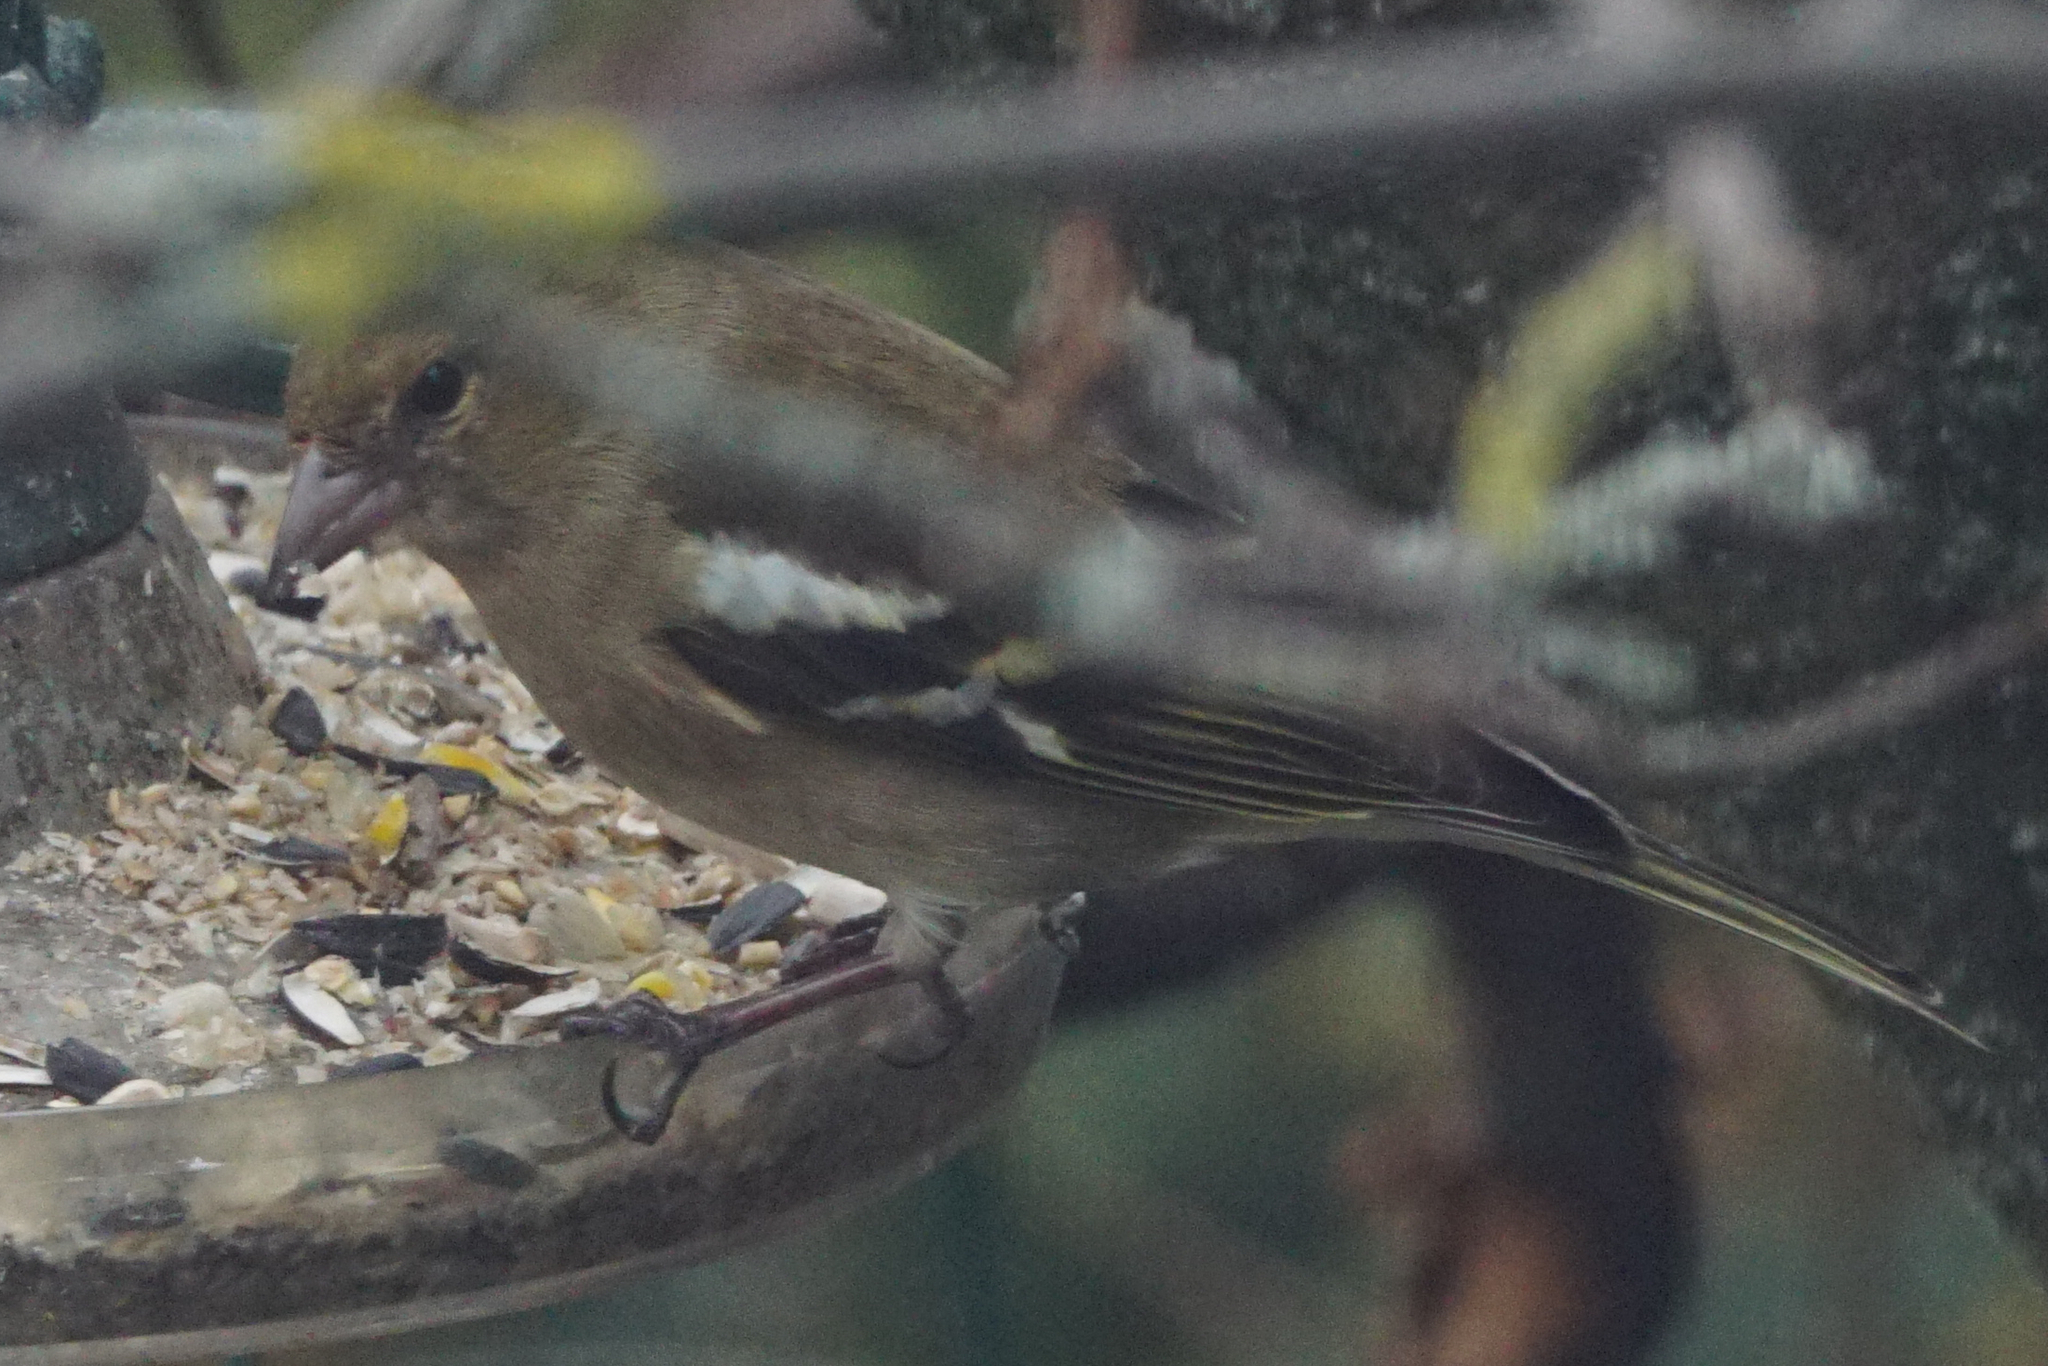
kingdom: Animalia
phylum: Chordata
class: Aves
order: Passeriformes
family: Fringillidae
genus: Fringilla
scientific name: Fringilla coelebs
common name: Common chaffinch
